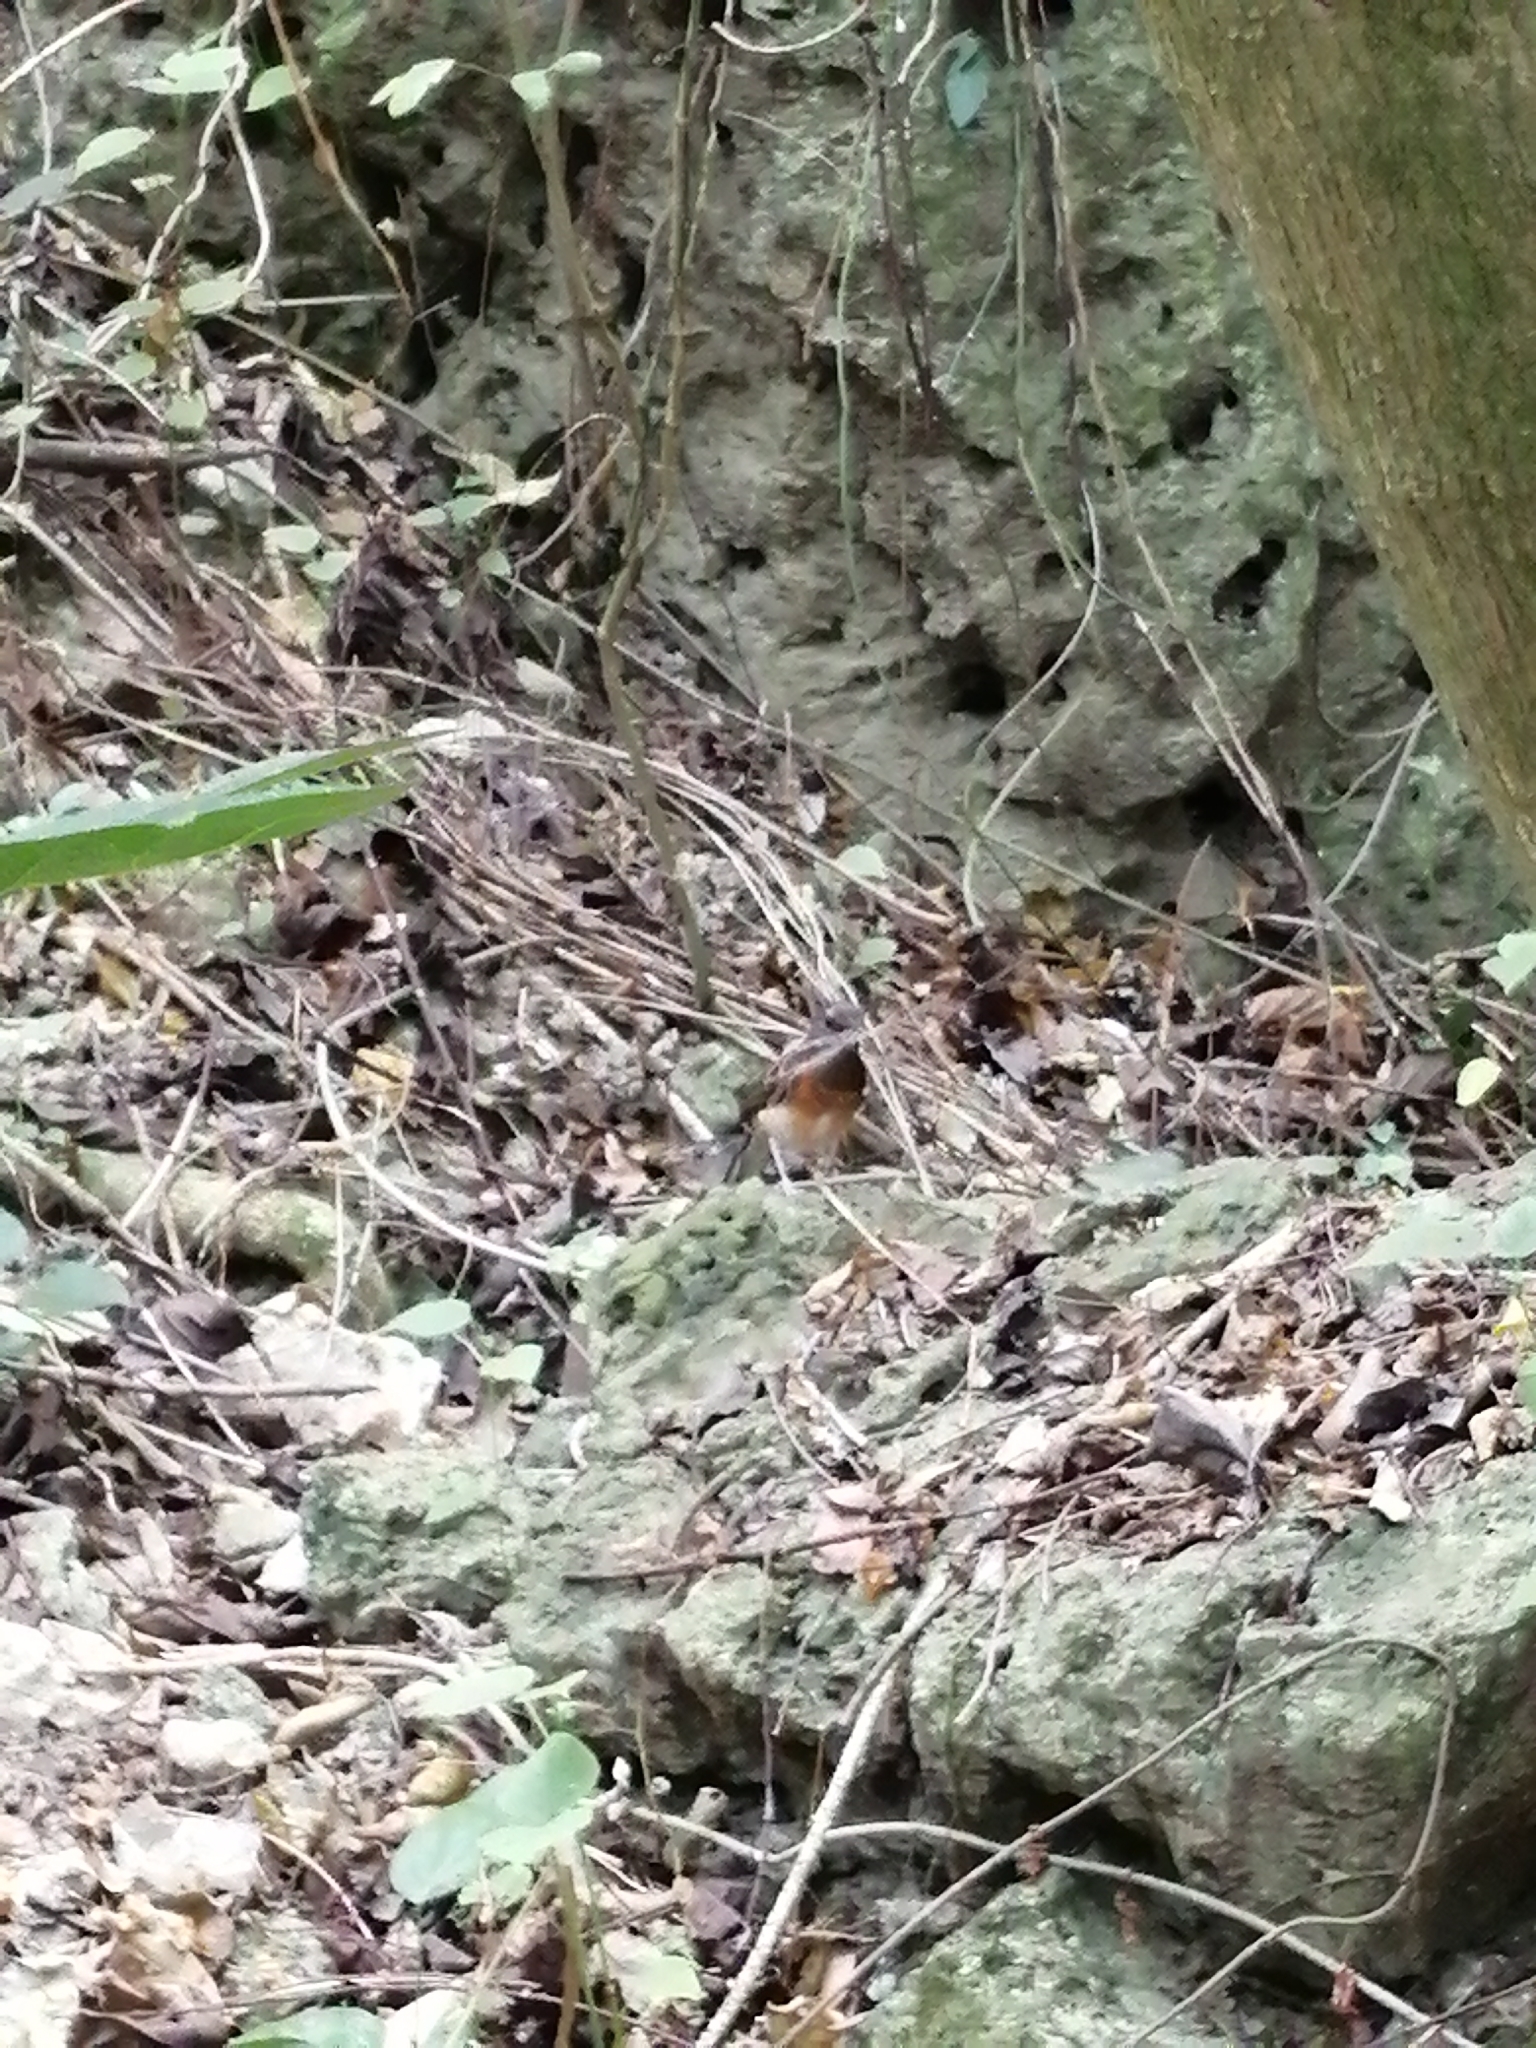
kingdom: Animalia
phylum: Chordata
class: Aves
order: Passeriformes
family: Muscicapidae
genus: Copsychus
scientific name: Copsychus malabaricus
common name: White-rumped shama
